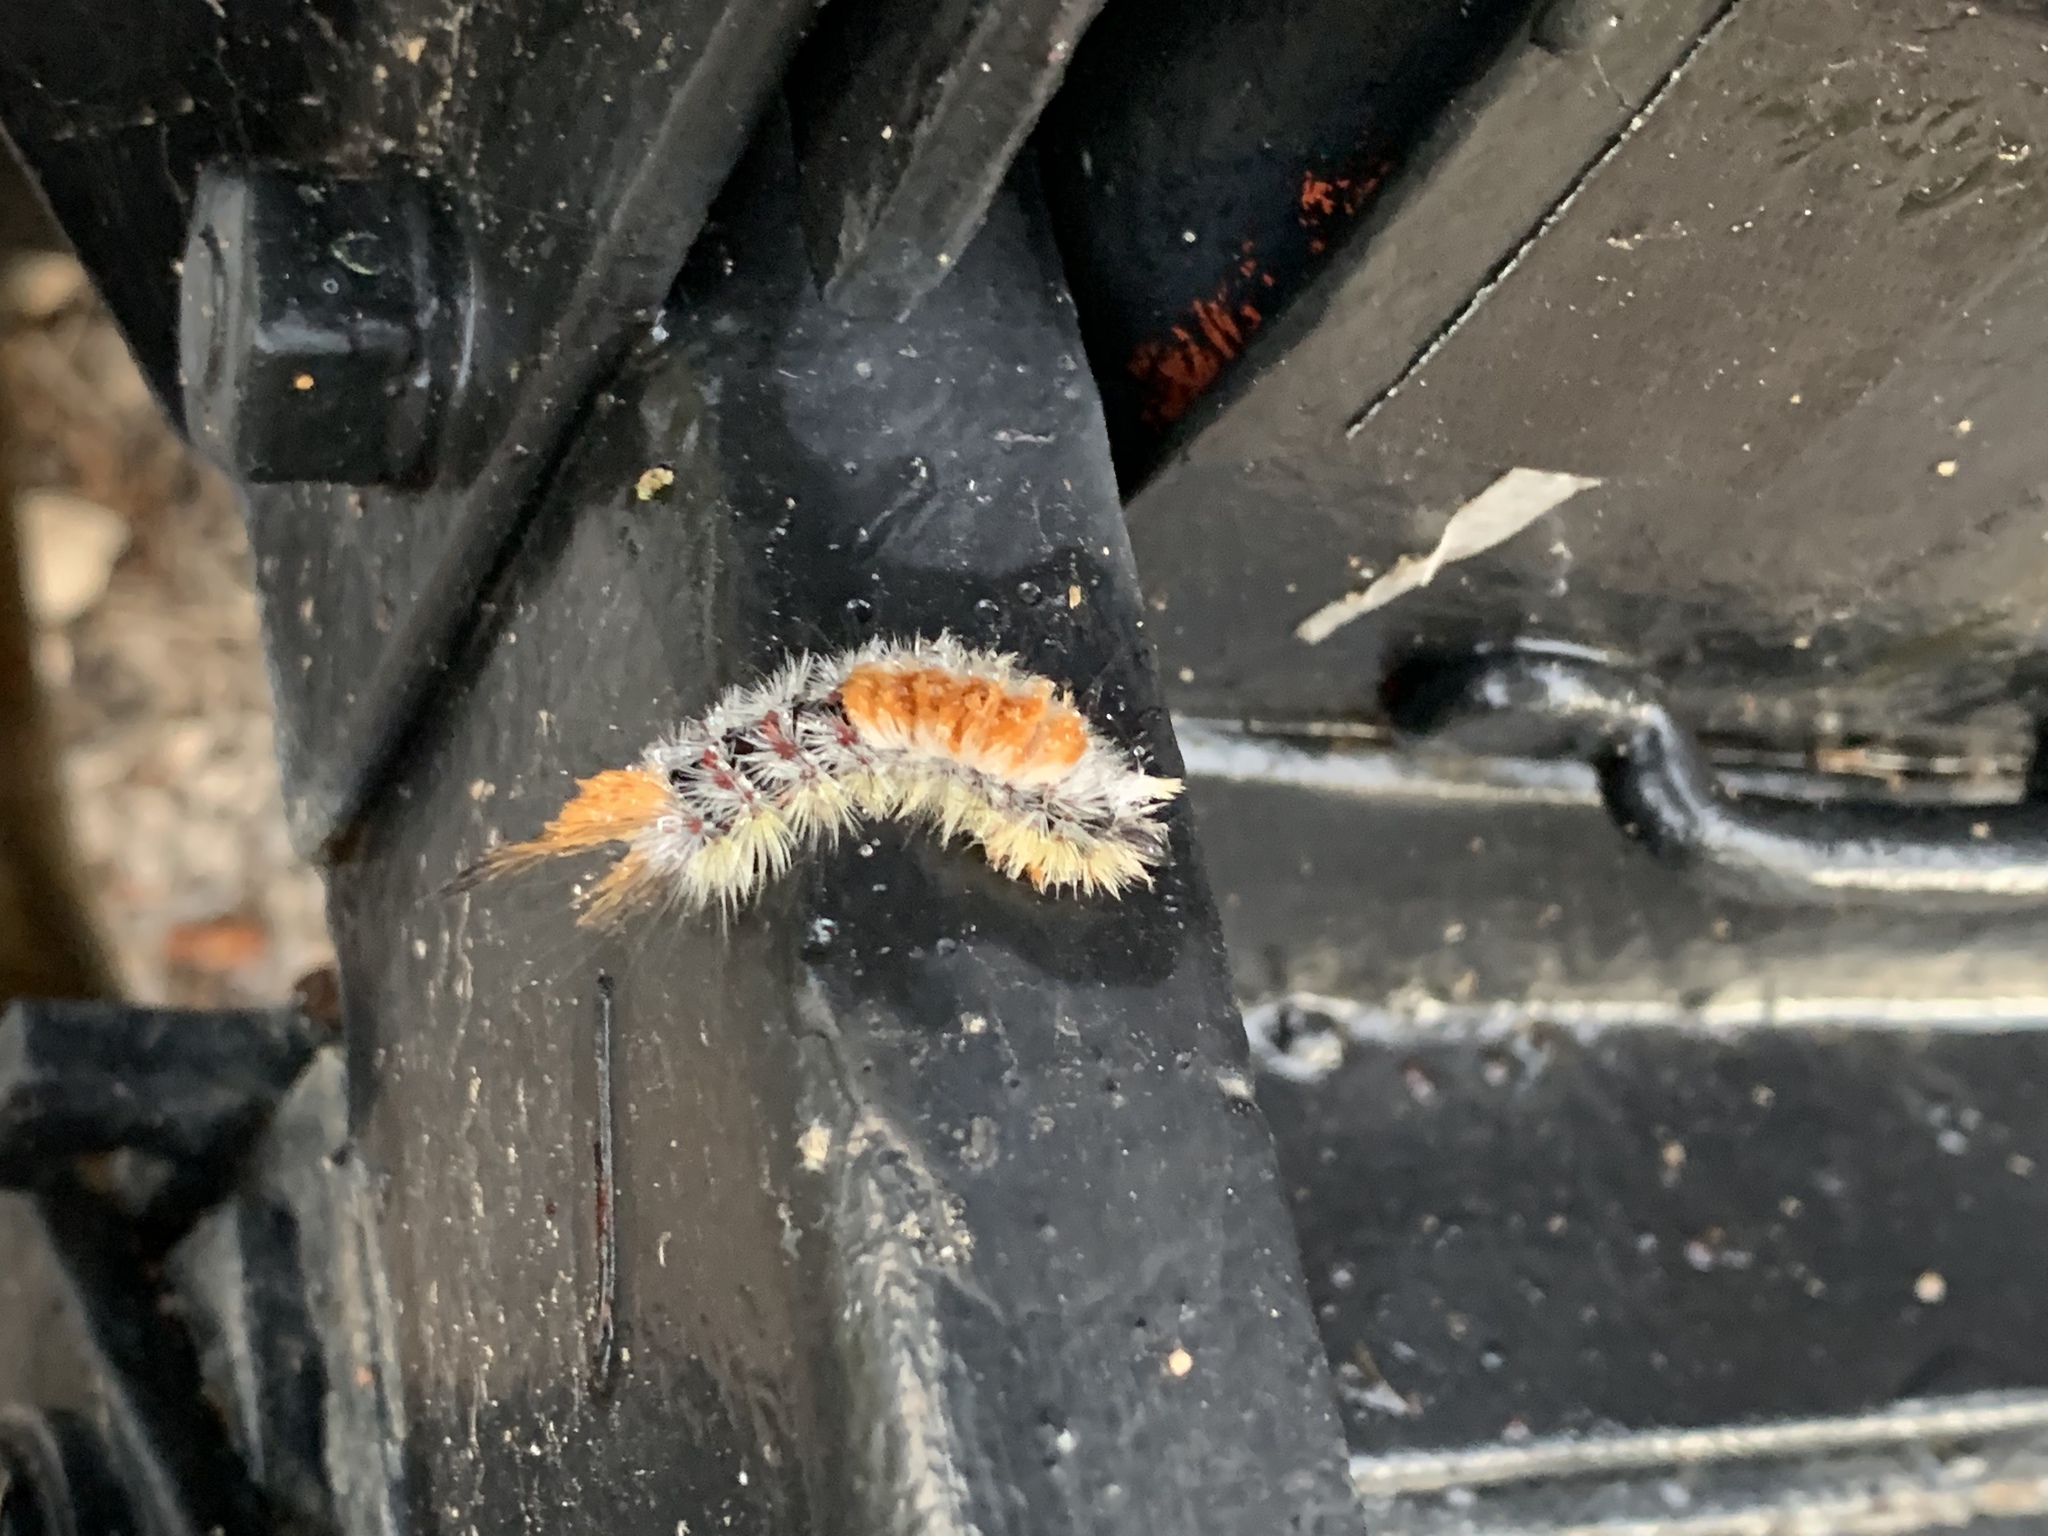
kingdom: Animalia
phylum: Arthropoda
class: Insecta
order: Lepidoptera
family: Erebidae
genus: Orgyia
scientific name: Orgyia pseudotsugata
